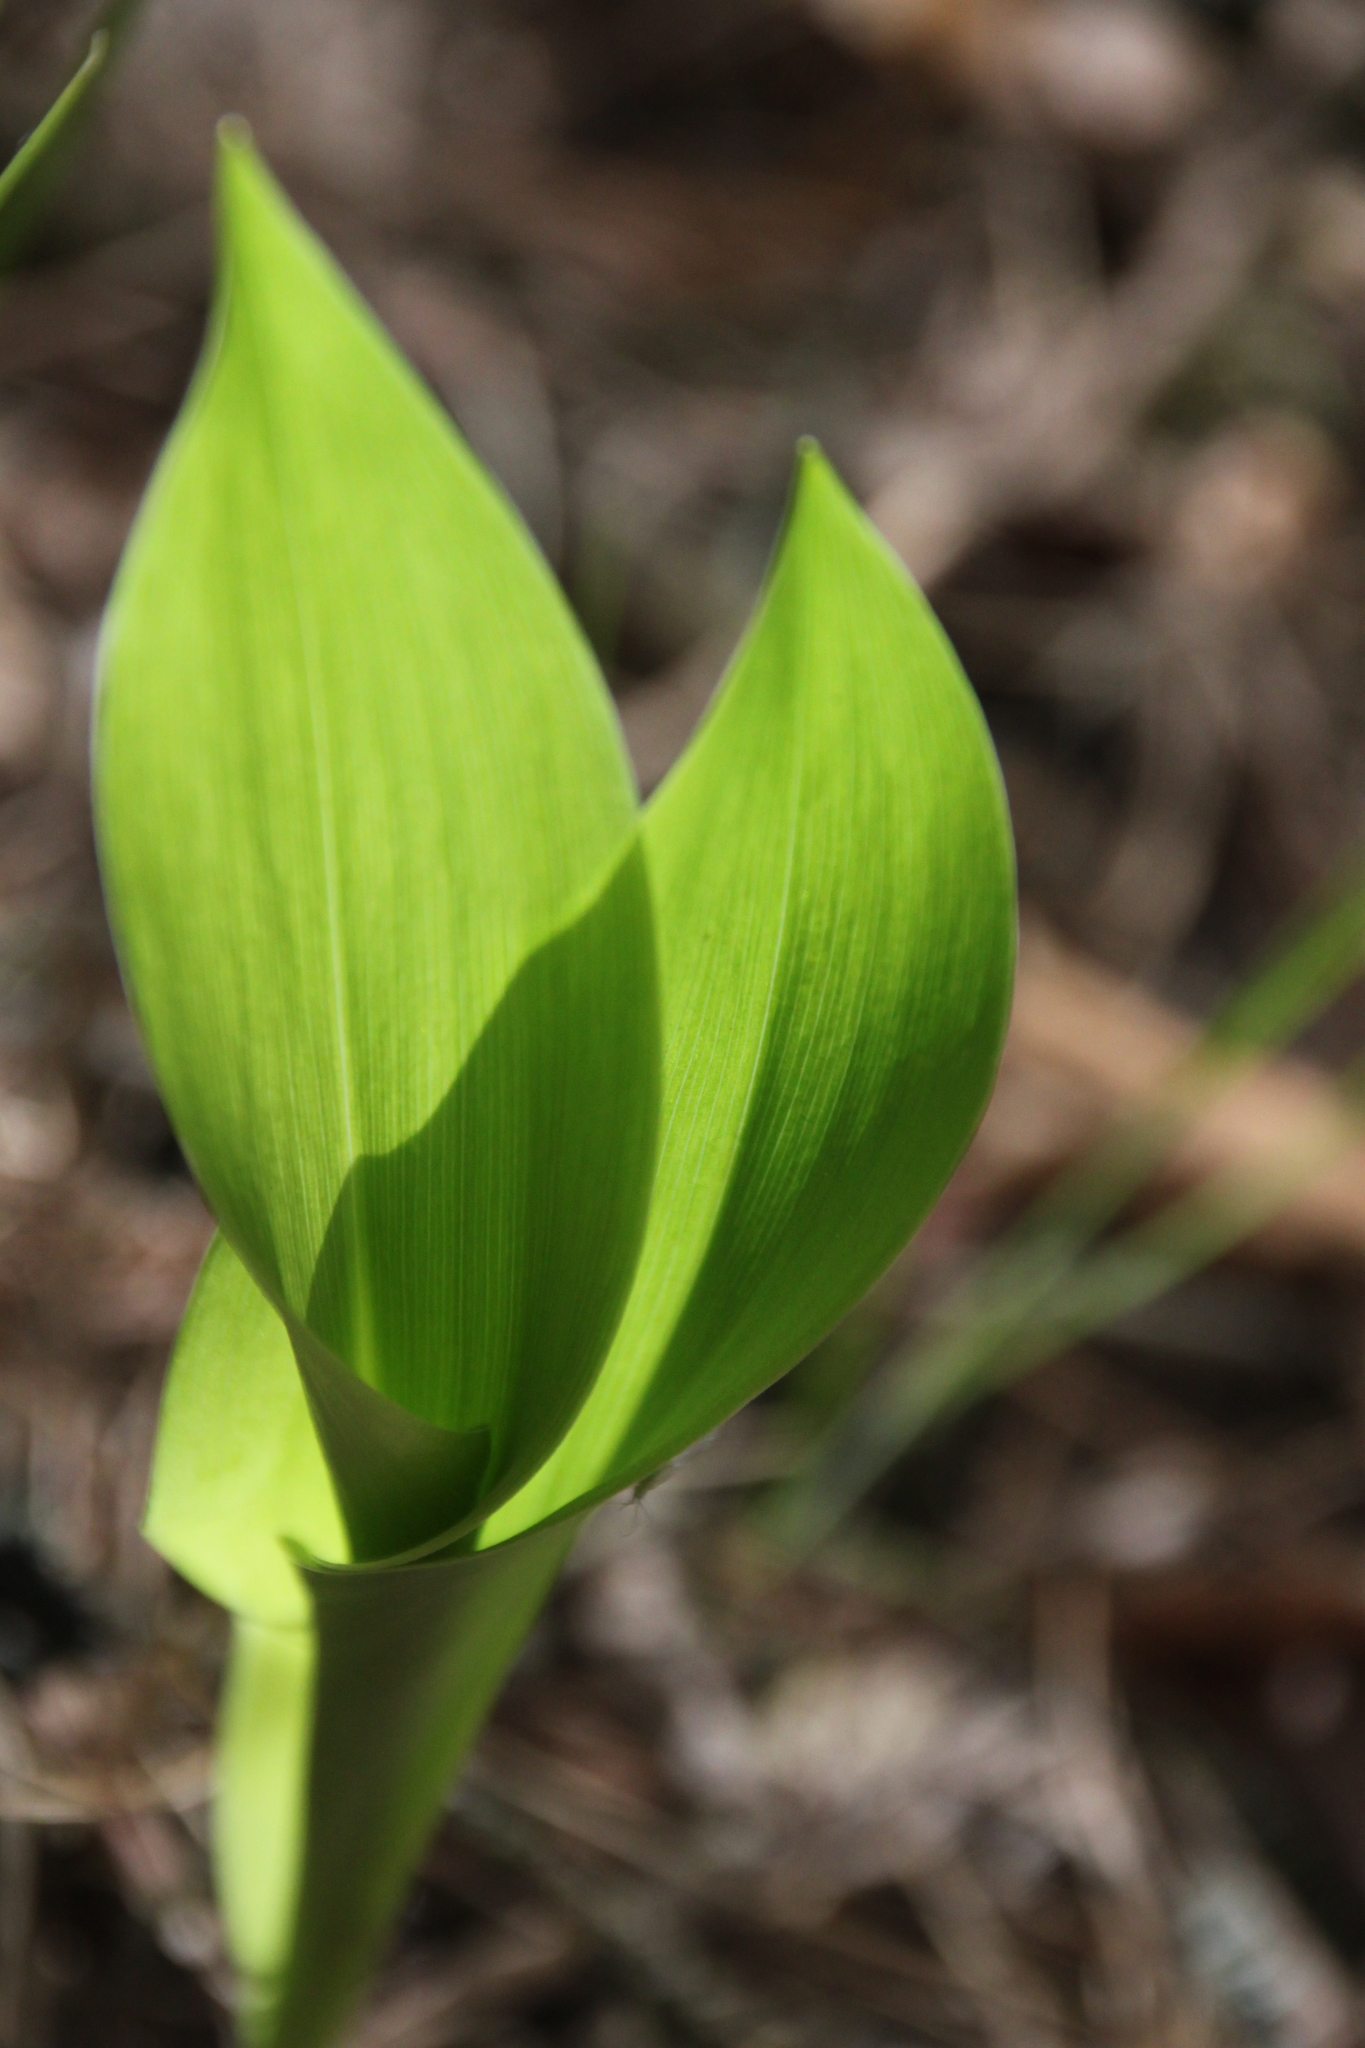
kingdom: Plantae
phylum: Tracheophyta
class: Liliopsida
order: Asparagales
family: Asparagaceae
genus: Convallaria
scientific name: Convallaria majalis
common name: Lily-of-the-valley
